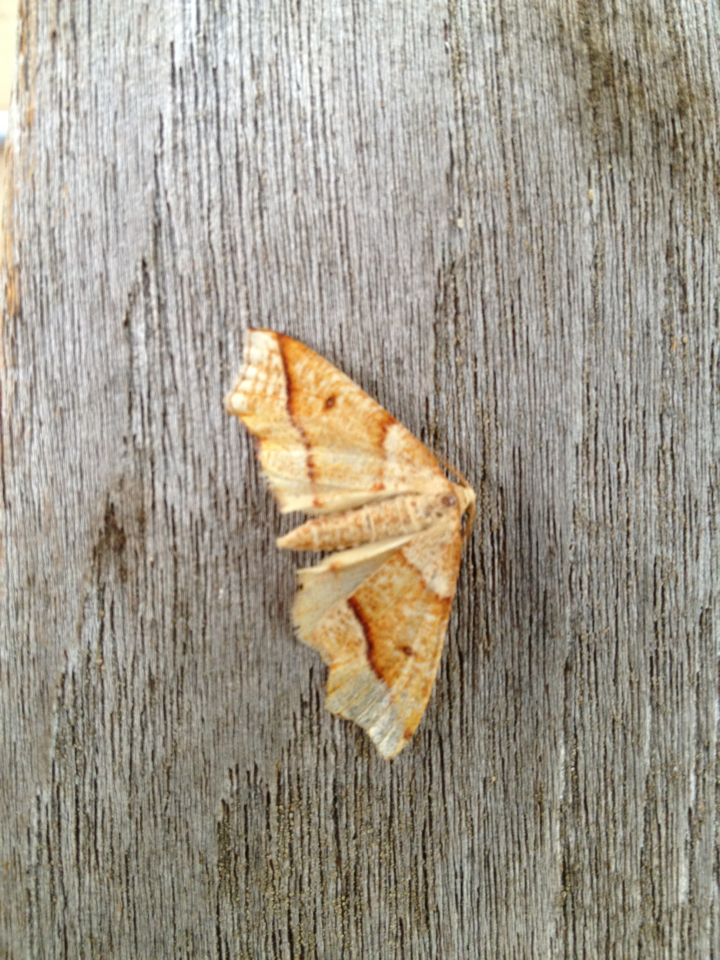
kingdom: Animalia
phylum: Arthropoda
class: Insecta
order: Lepidoptera
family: Geometridae
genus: Plagodis
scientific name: Plagodis alcoolaria
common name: Hollow-spotted plagodis
